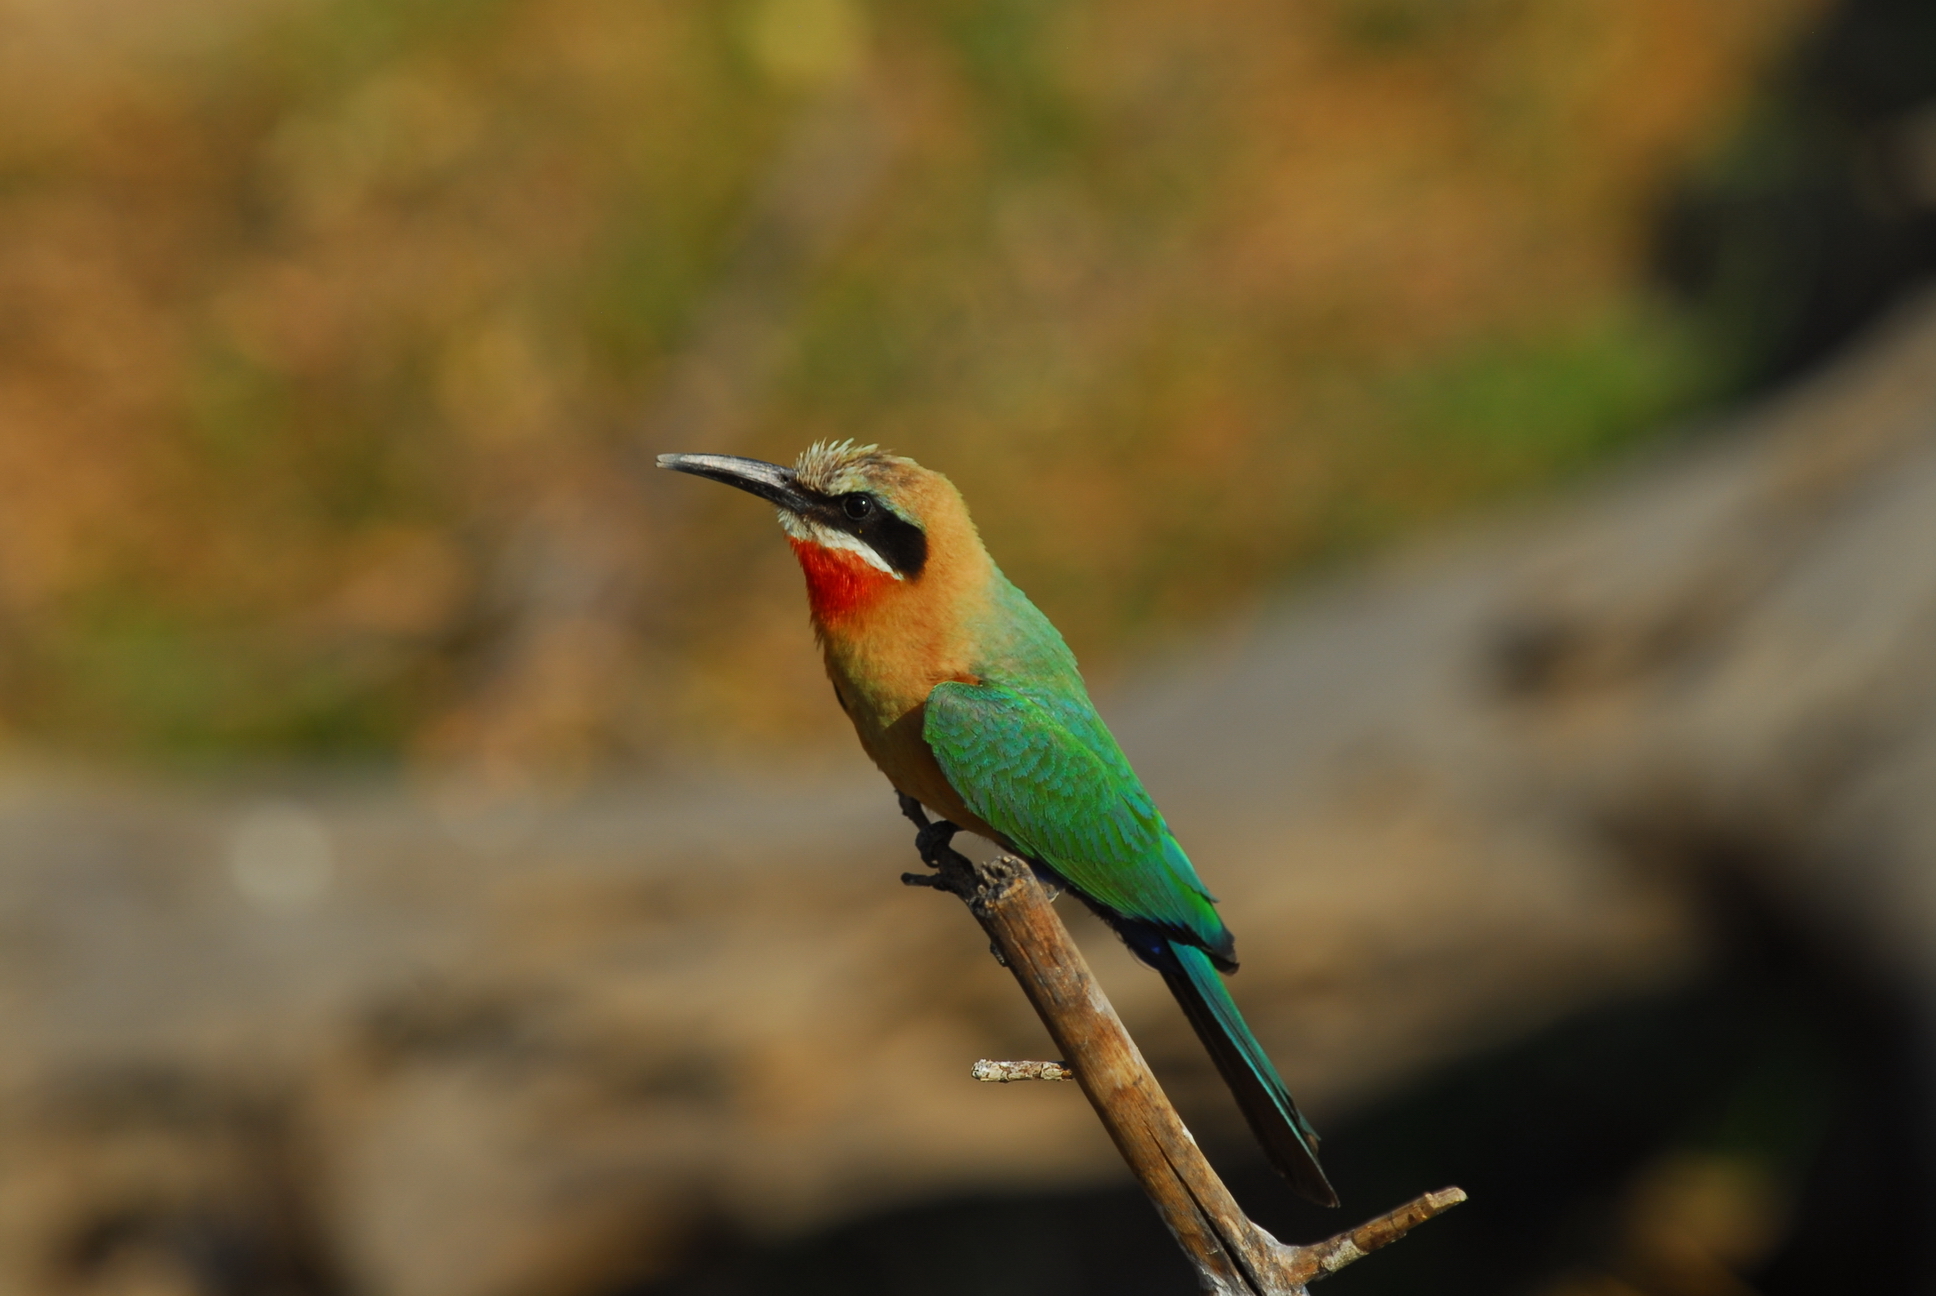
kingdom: Animalia
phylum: Chordata
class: Aves
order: Coraciiformes
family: Meropidae
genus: Merops
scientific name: Merops bullockoides
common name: White-fronted bee-eater
